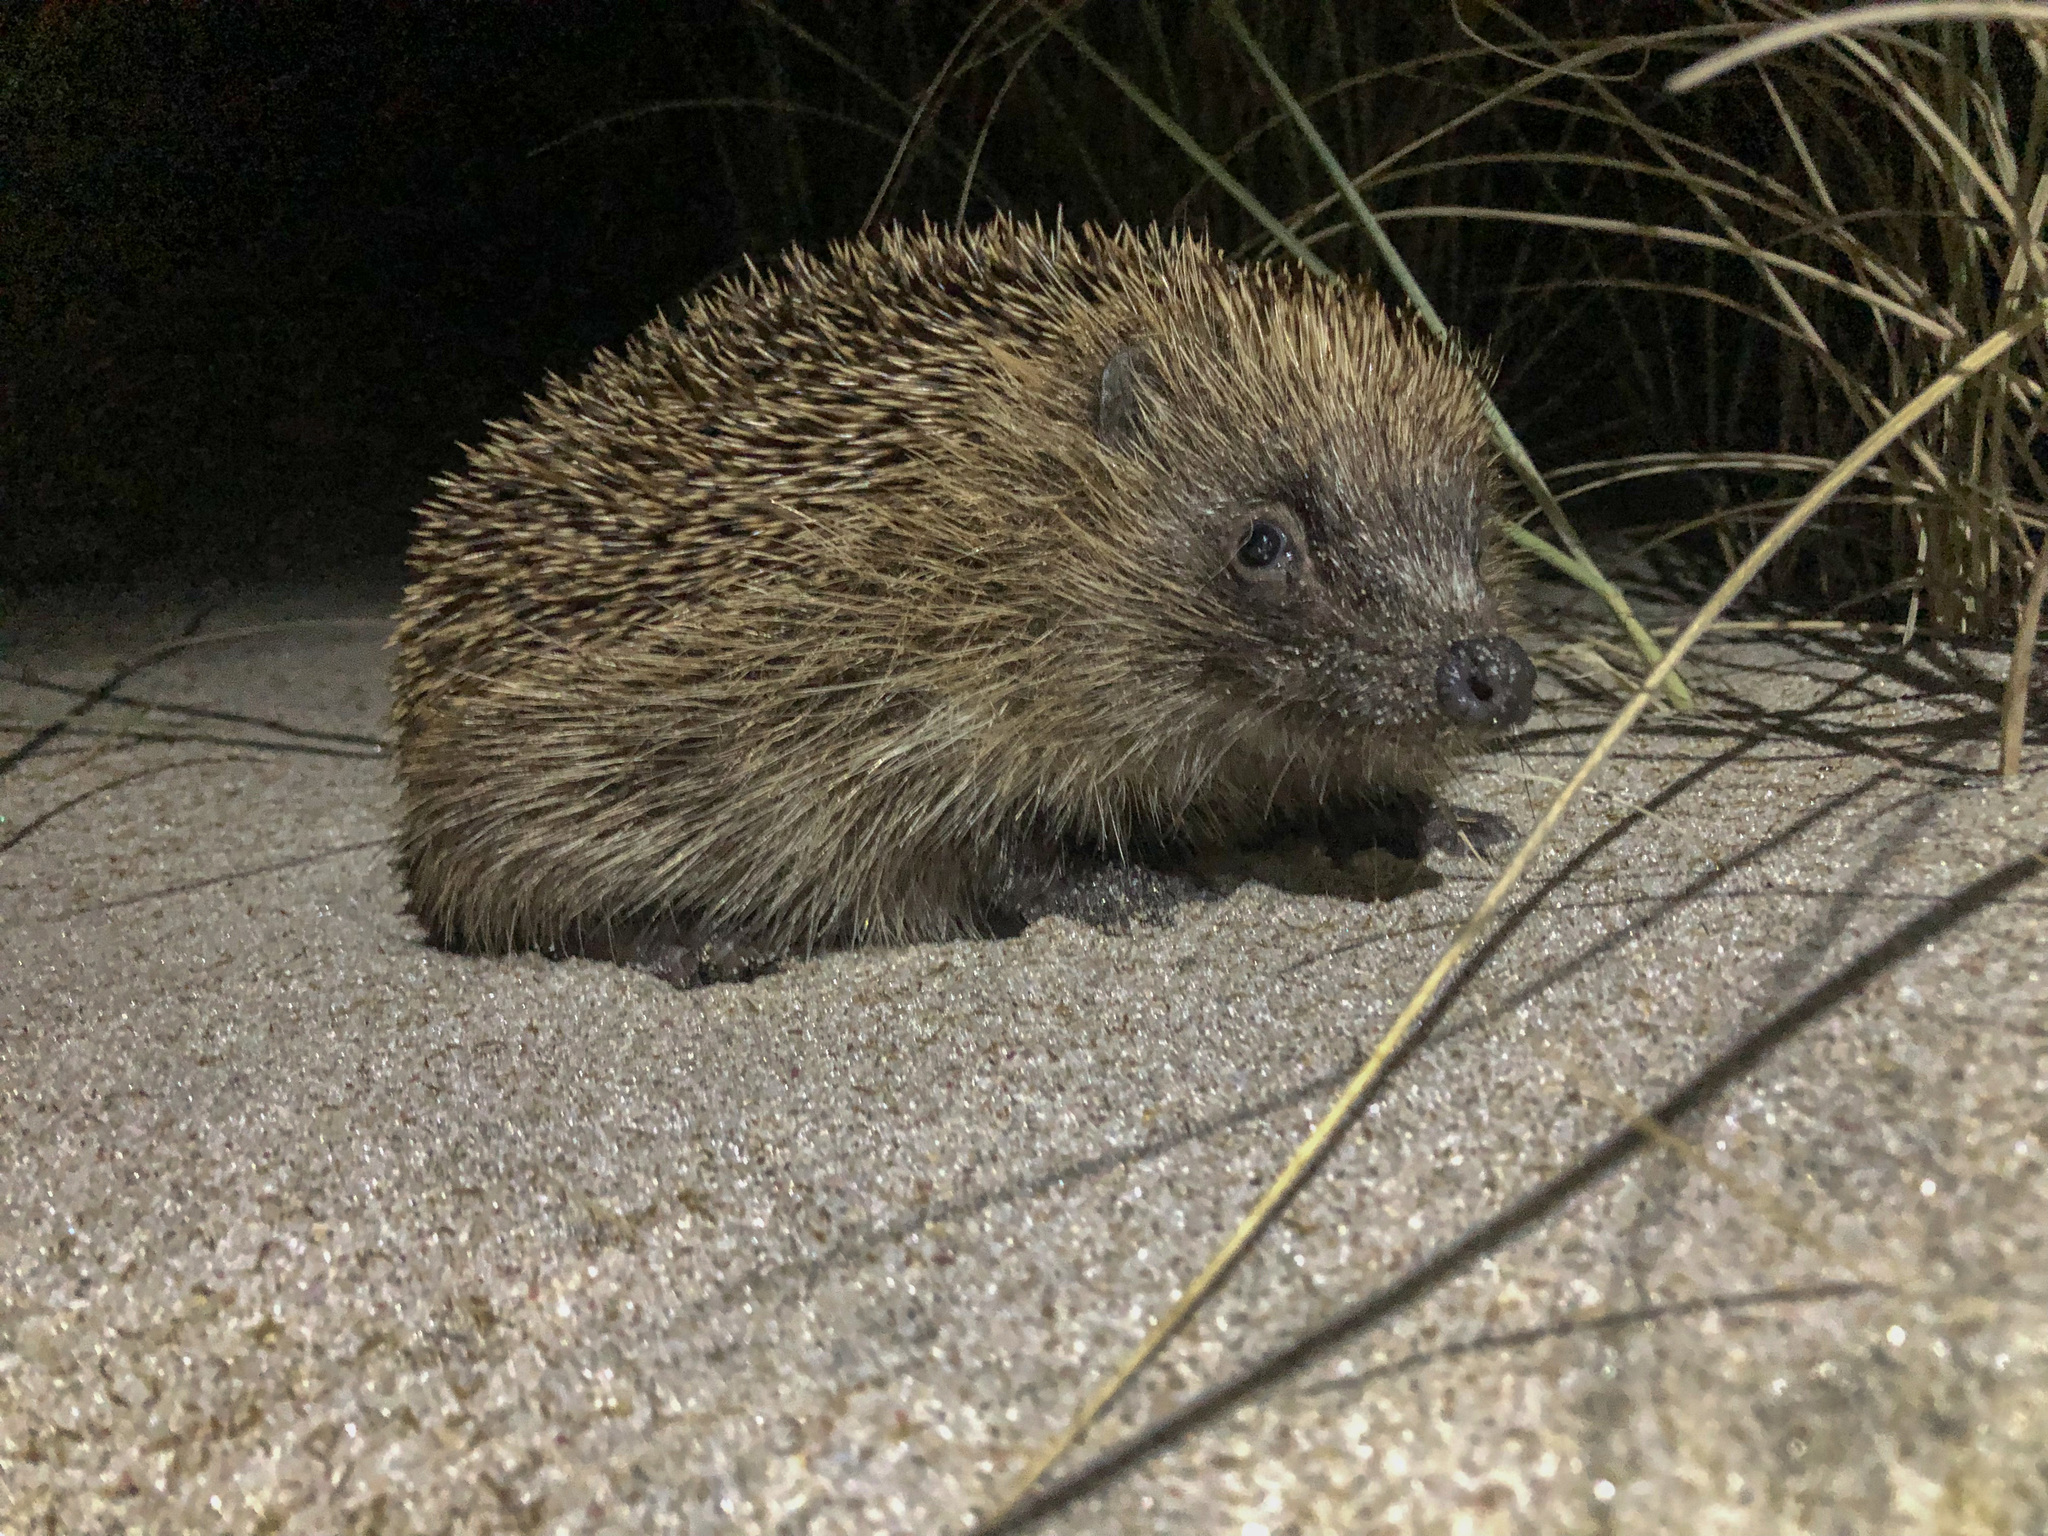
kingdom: Animalia
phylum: Chordata
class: Mammalia
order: Erinaceomorpha
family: Erinaceidae
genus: Erinaceus
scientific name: Erinaceus europaeus
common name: West european hedgehog
